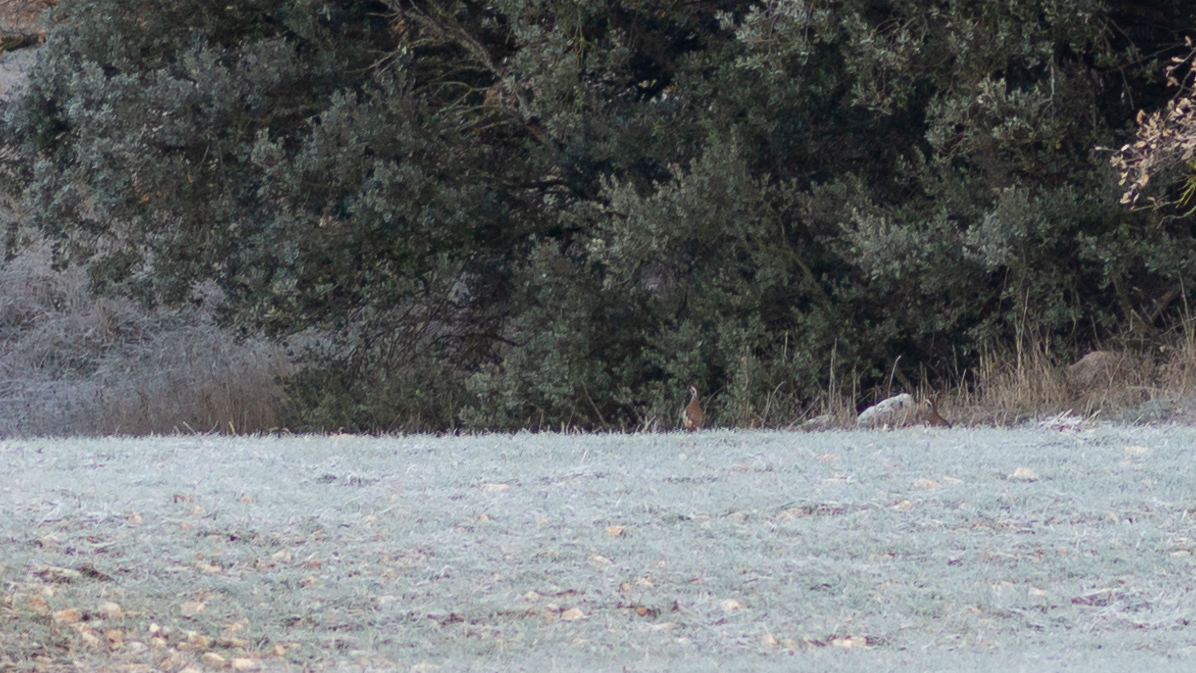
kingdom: Animalia
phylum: Chordata
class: Aves
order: Galliformes
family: Phasianidae
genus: Alectoris
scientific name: Alectoris rufa
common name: Red-legged partridge
